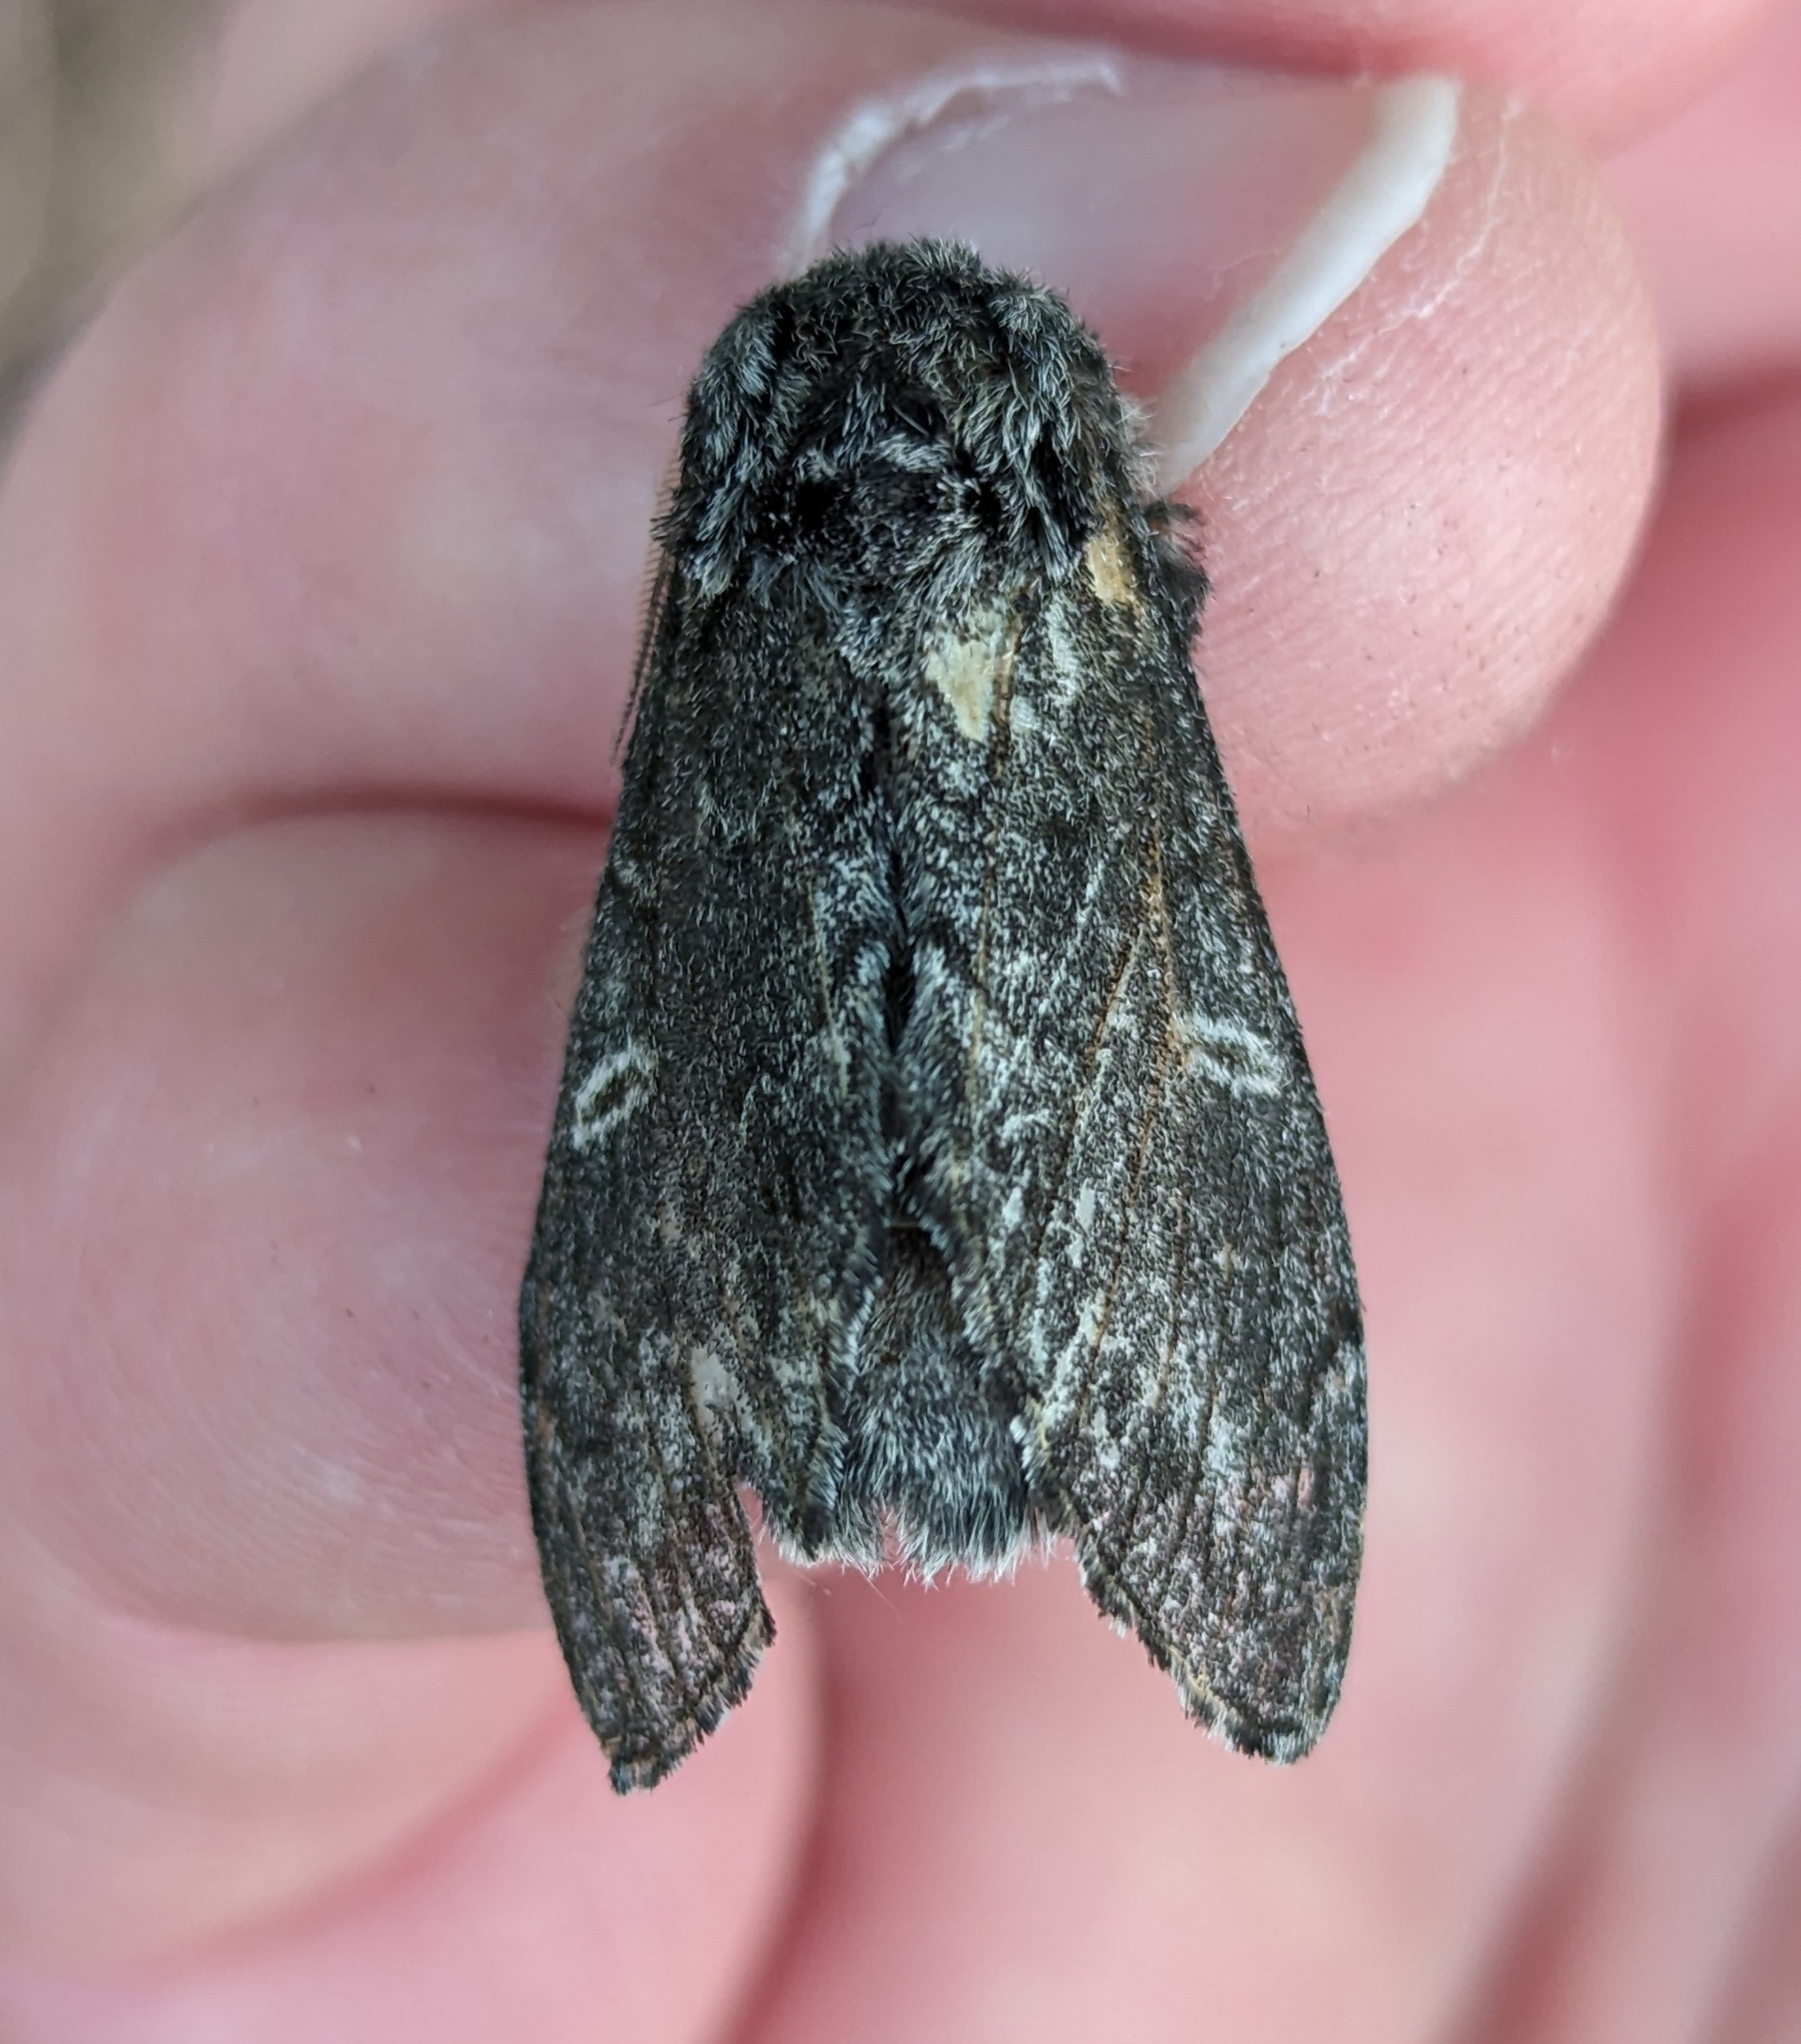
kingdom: Animalia
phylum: Arthropoda
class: Insecta
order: Lepidoptera
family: Notodontidae
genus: Notodonta
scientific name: Notodonta torva
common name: Large dark prominent
